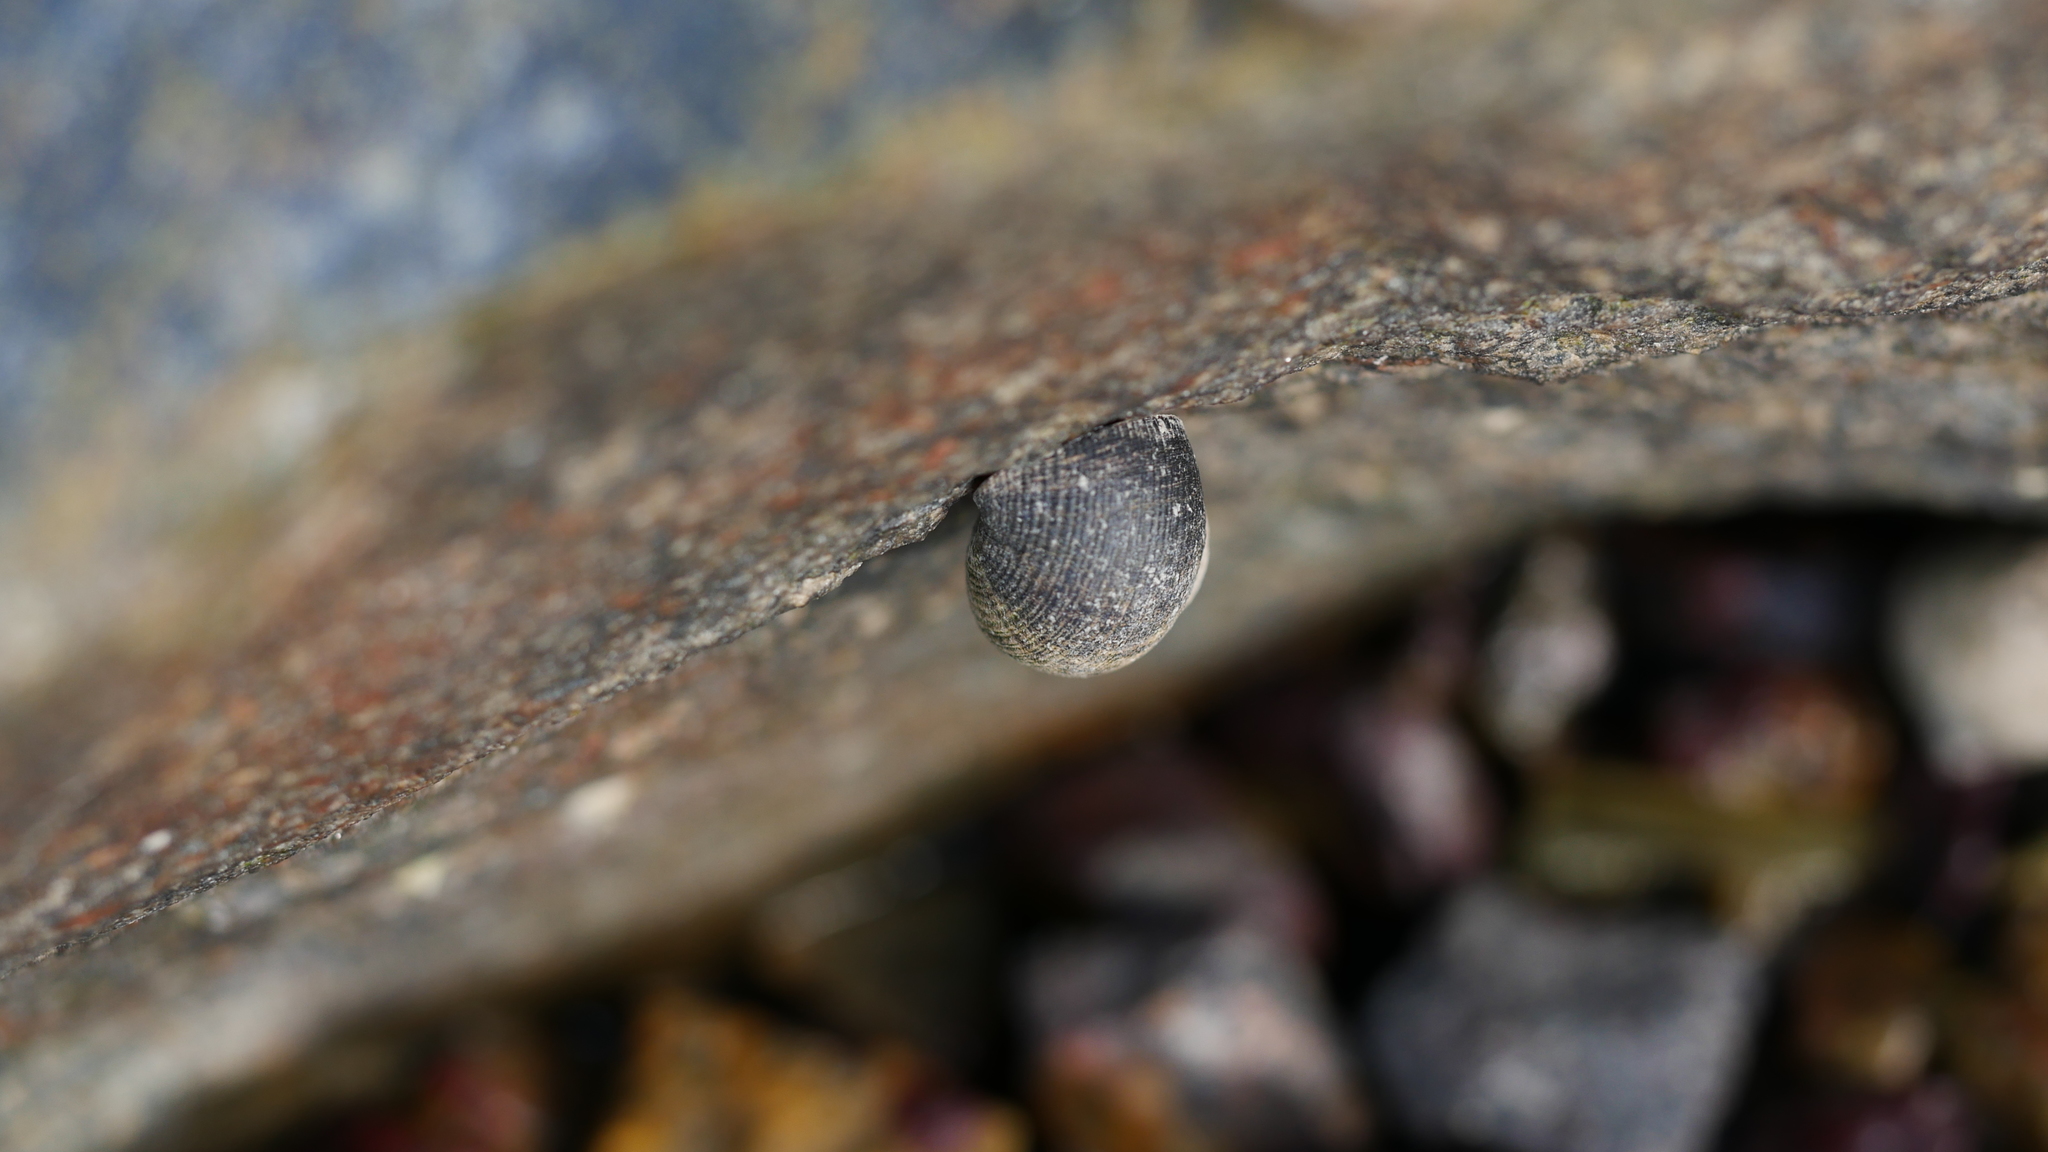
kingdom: Animalia
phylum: Mollusca
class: Gastropoda
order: Littorinimorpha
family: Littorinidae
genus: Littorina
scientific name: Littorina littorea
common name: Common periwinkle
